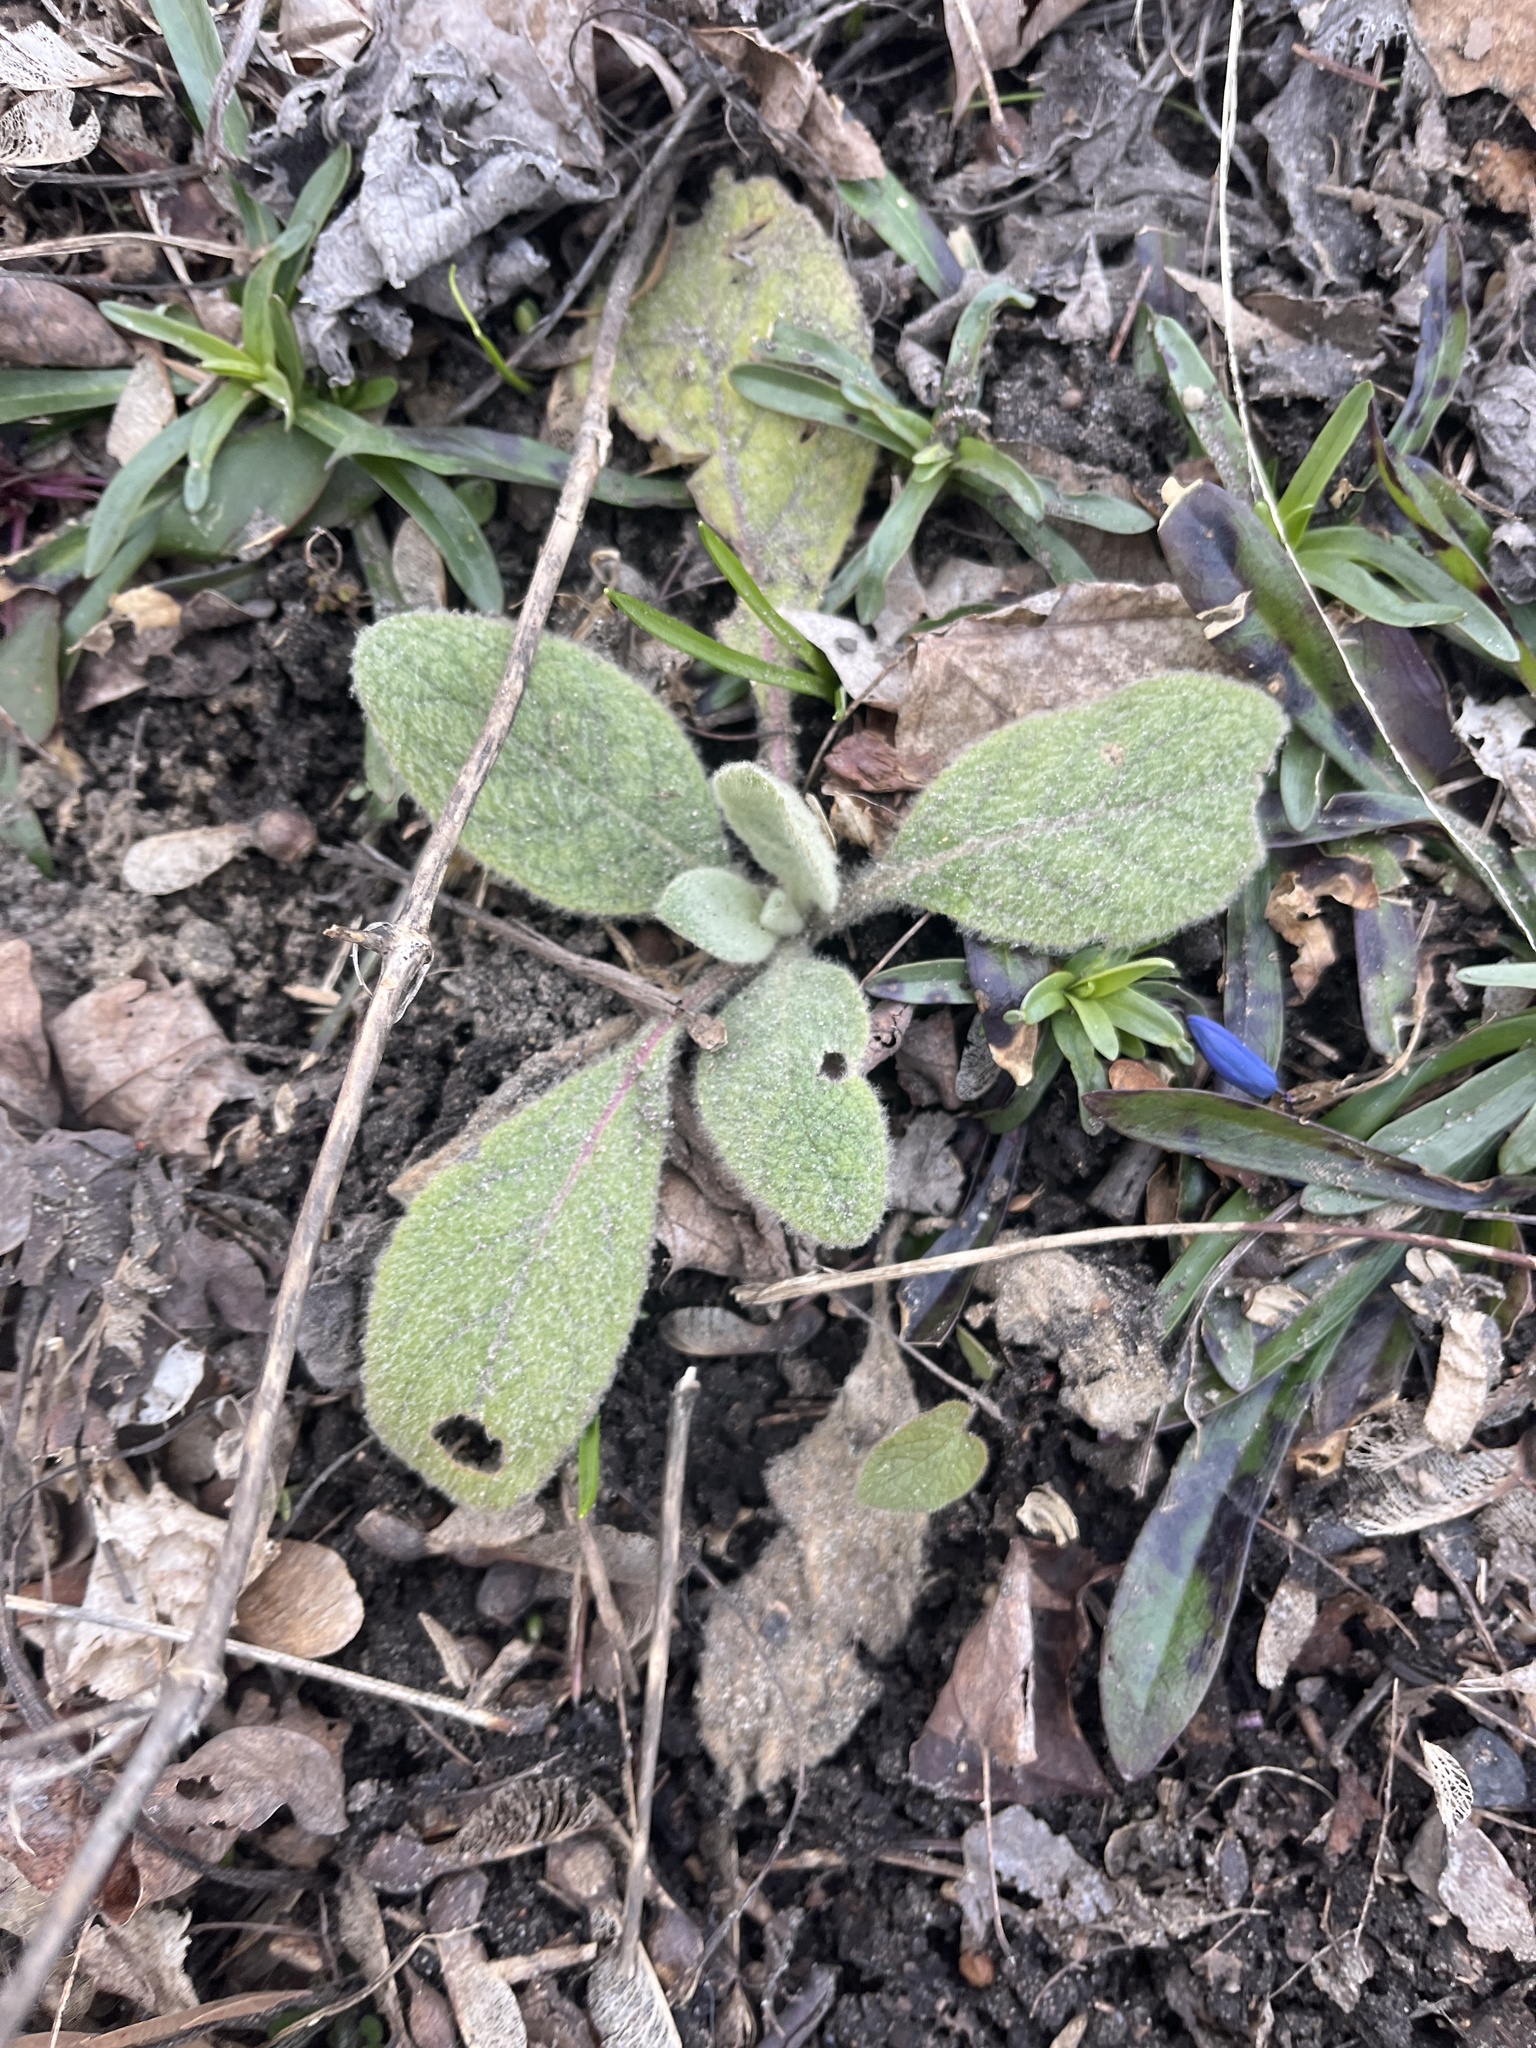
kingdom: Plantae
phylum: Tracheophyta
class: Magnoliopsida
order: Lamiales
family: Scrophulariaceae
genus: Verbascum
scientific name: Verbascum thapsus
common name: Common mullein
